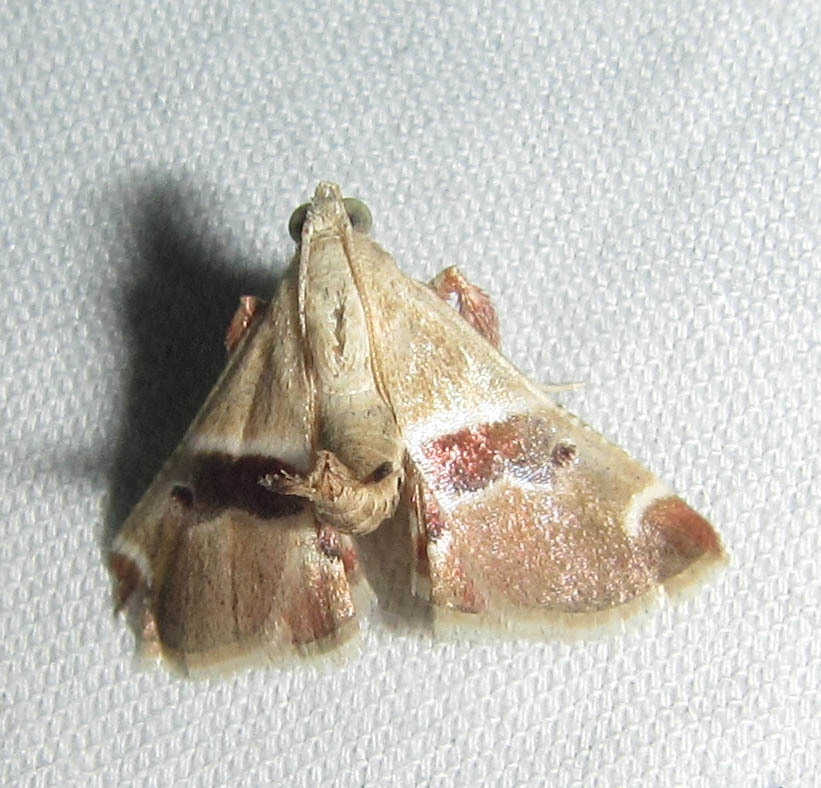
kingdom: Animalia
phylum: Arthropoda
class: Insecta
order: Lepidoptera
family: Pyralidae
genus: Umkulunkula
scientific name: Umkulunkula kalahariensis
